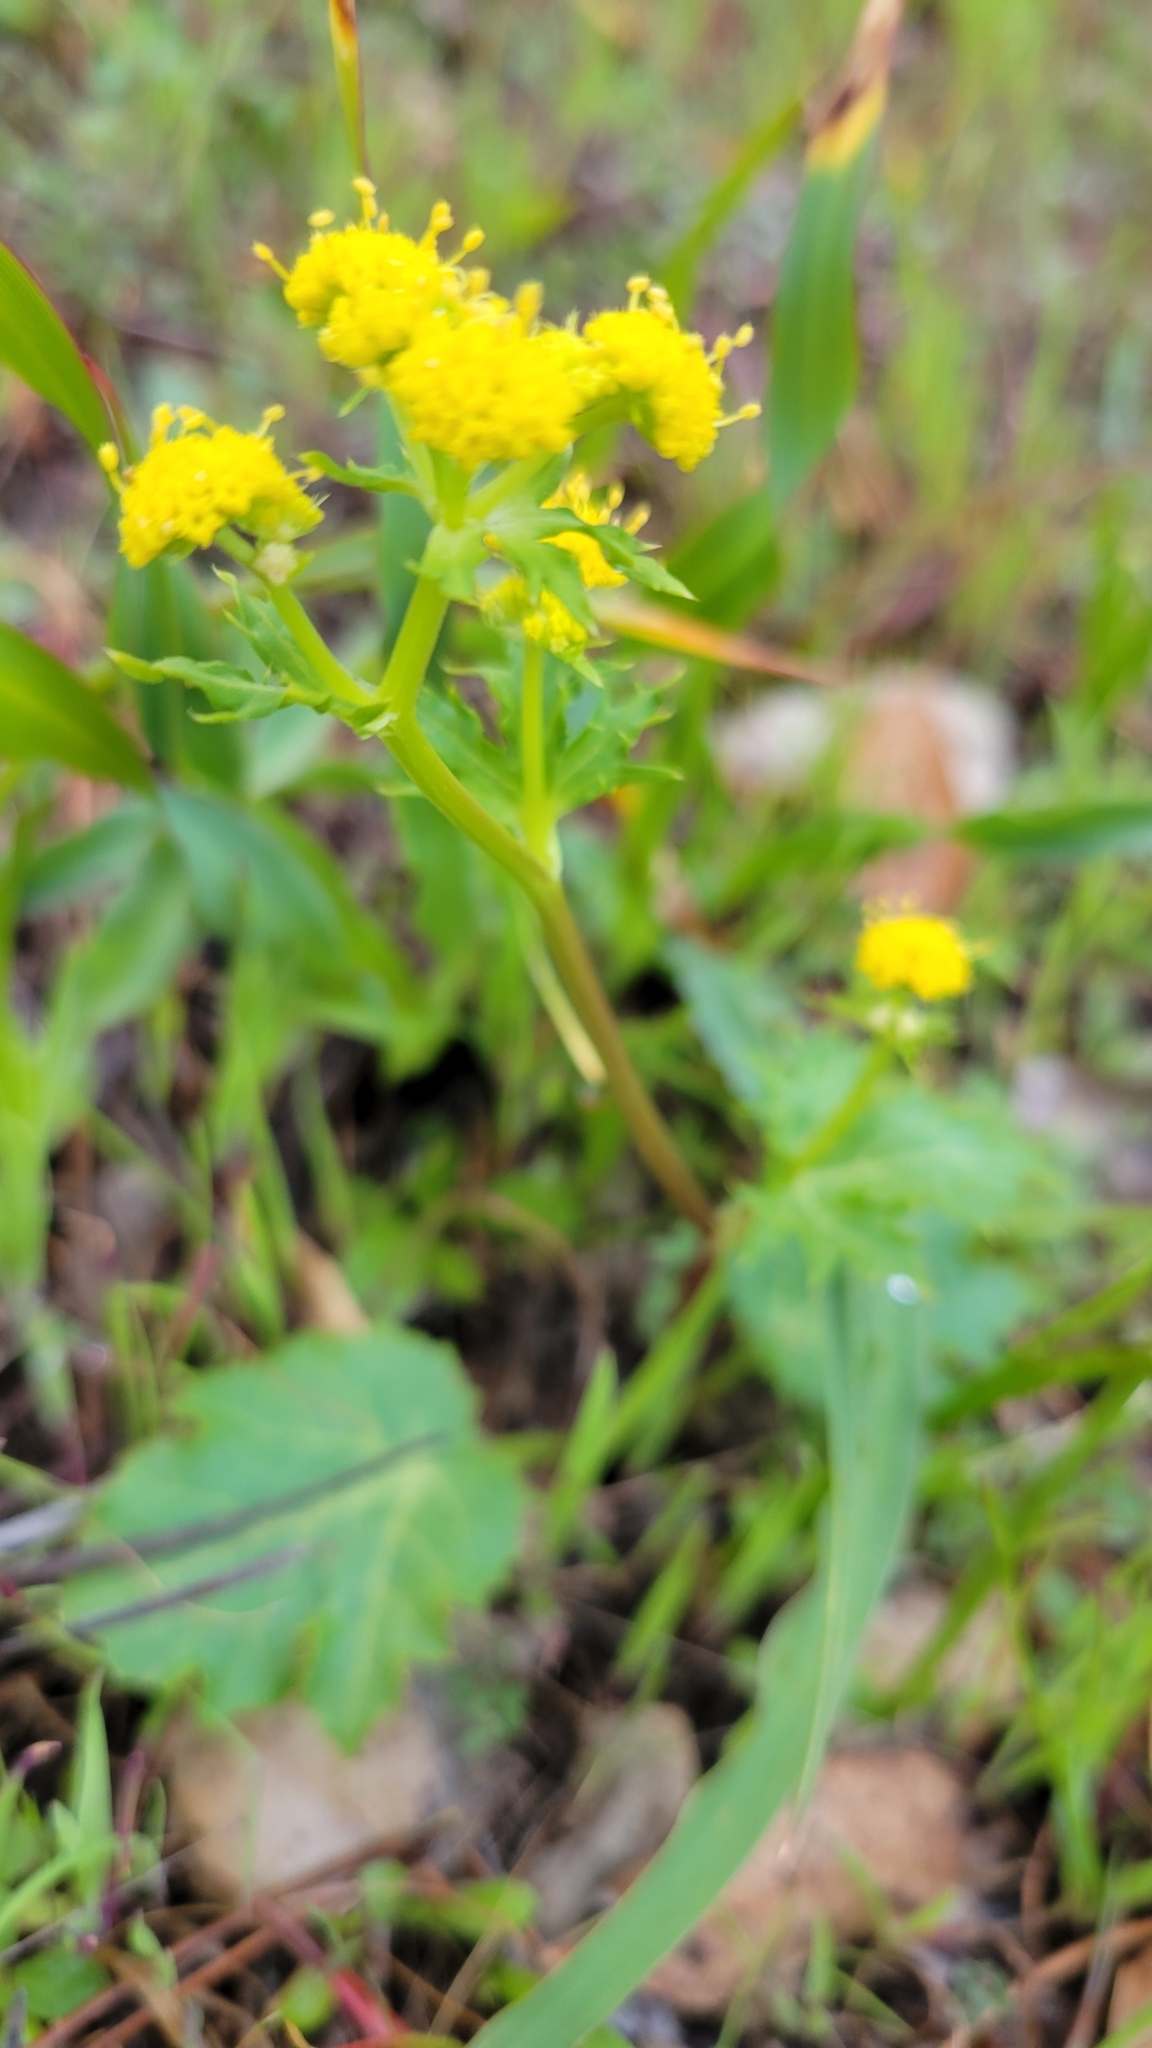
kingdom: Plantae
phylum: Tracheophyta
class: Magnoliopsida
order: Apiales
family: Apiaceae
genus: Sanicula
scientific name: Sanicula laciniata
